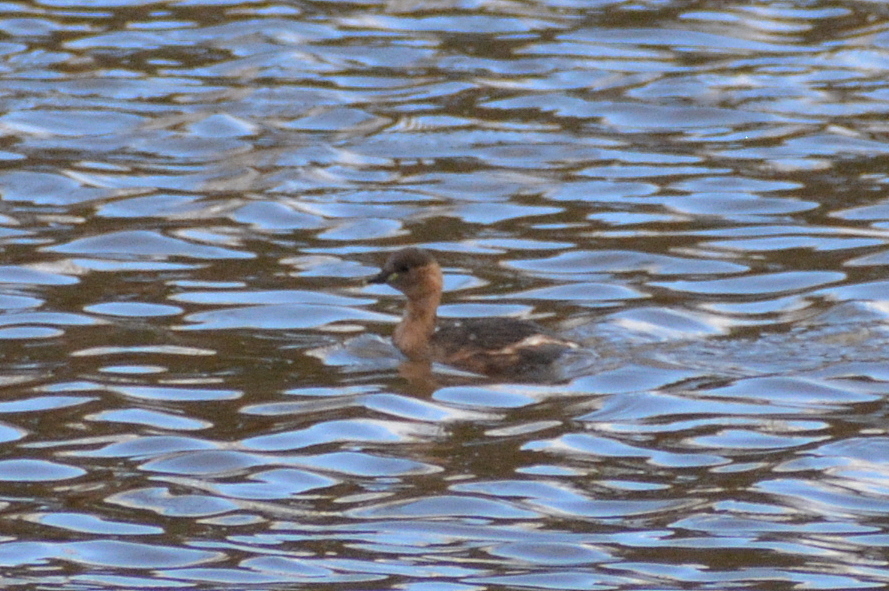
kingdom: Animalia
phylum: Chordata
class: Aves
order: Podicipediformes
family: Podicipedidae
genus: Tachybaptus
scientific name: Tachybaptus ruficollis
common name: Little grebe
